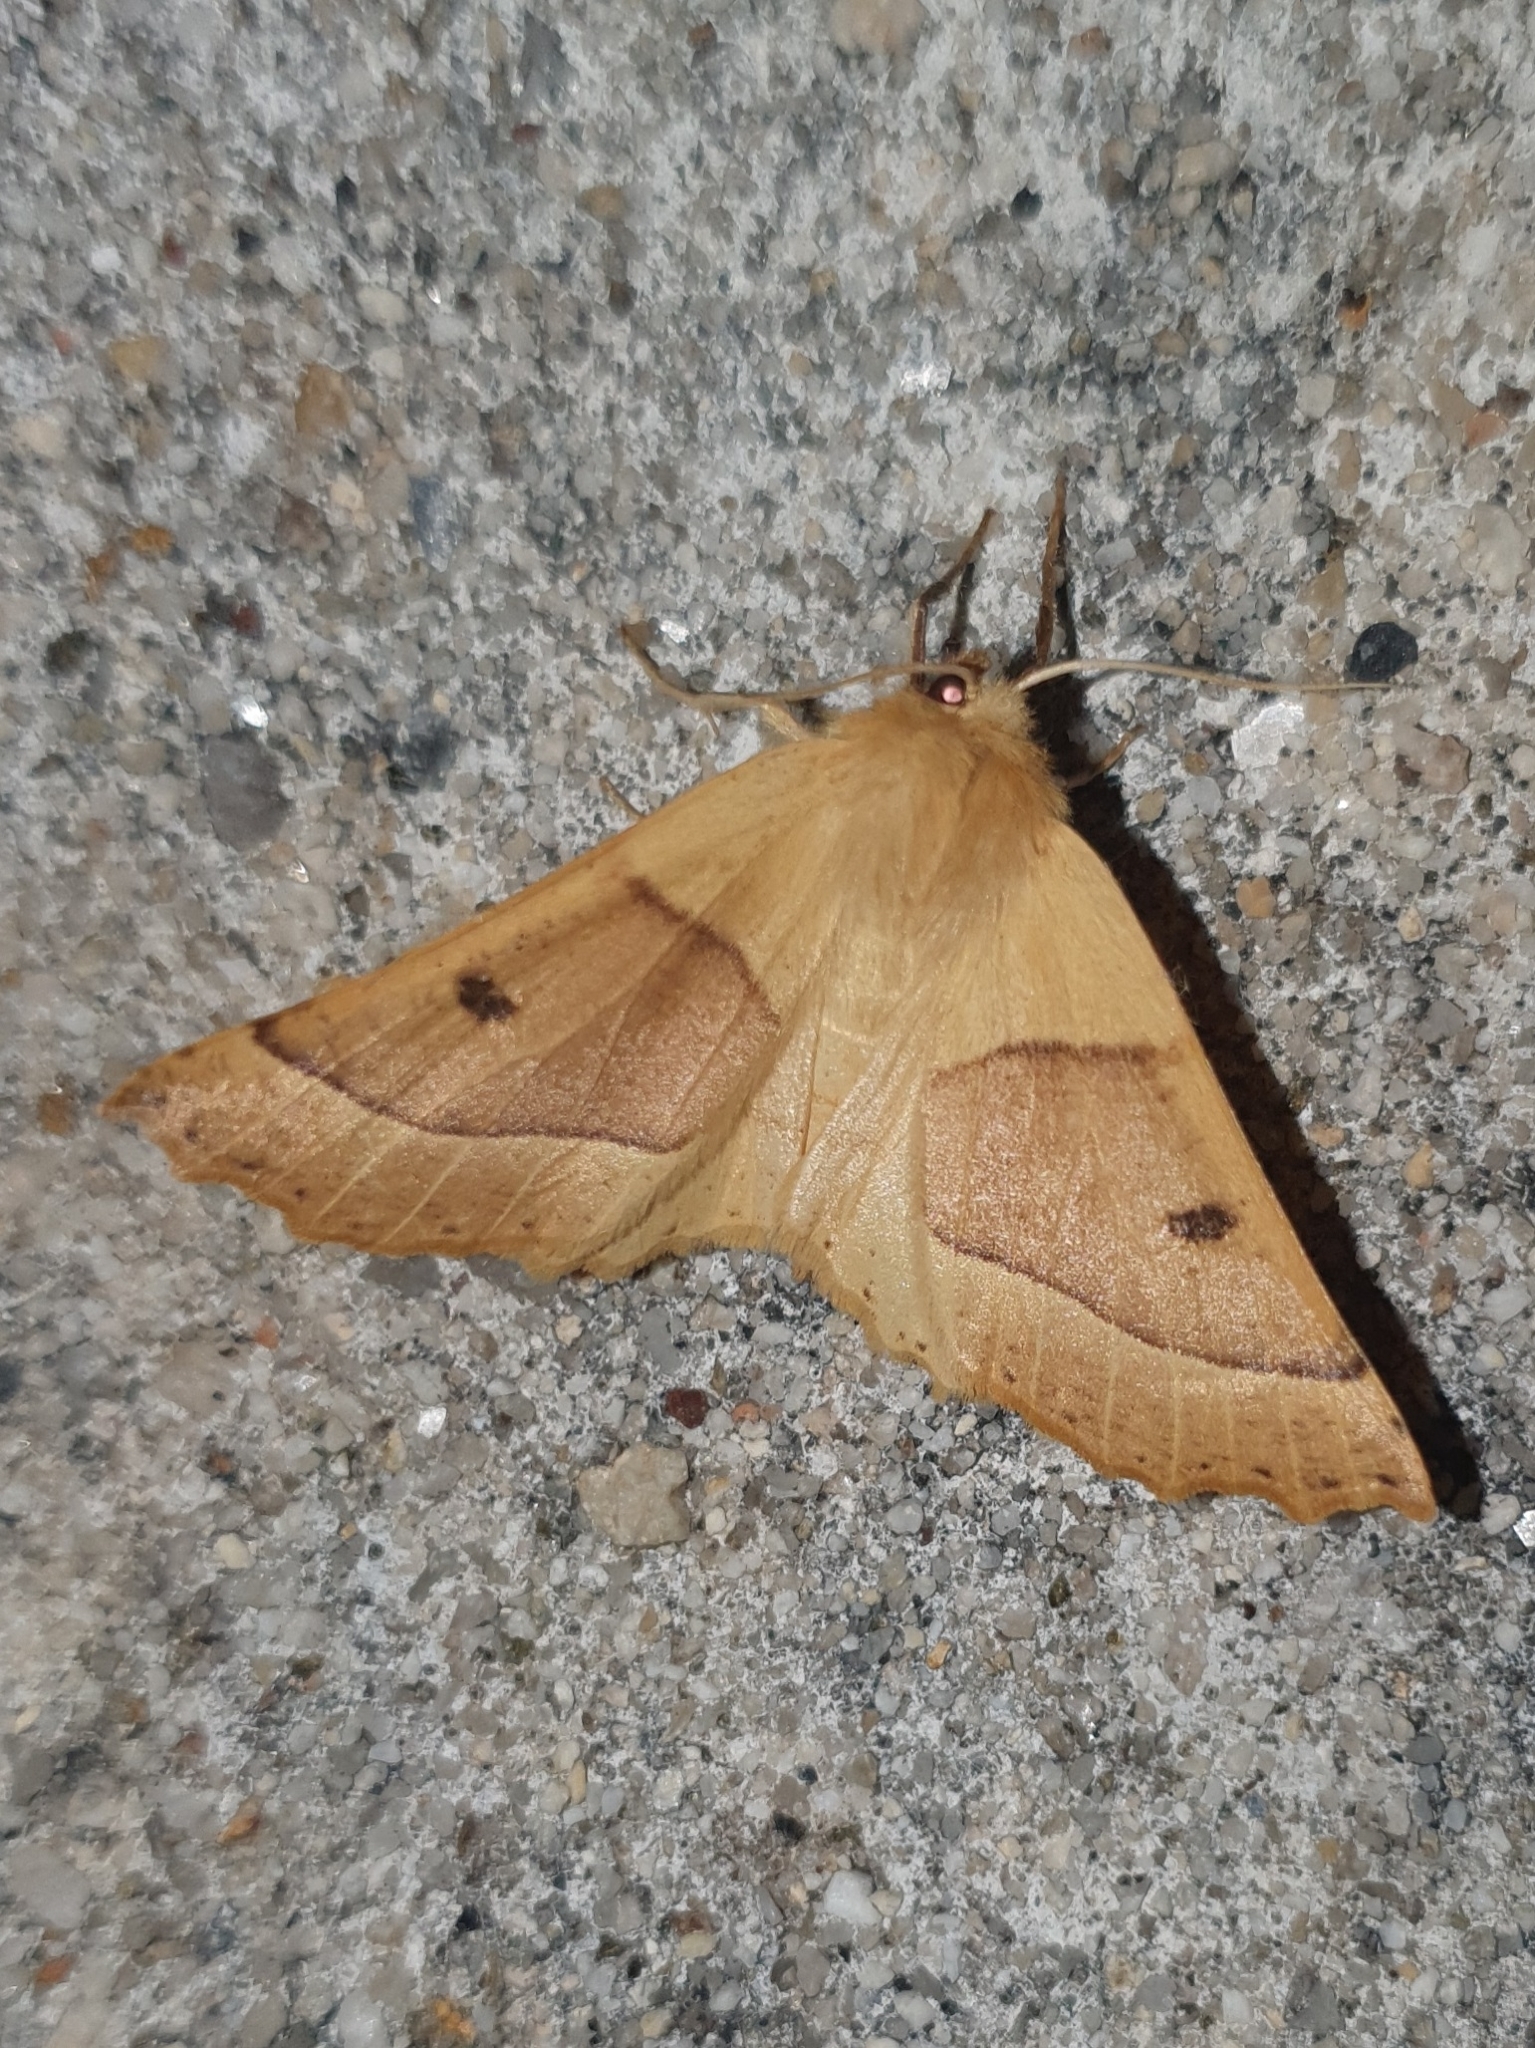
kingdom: Animalia
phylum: Arthropoda
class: Insecta
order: Lepidoptera
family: Geometridae
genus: Crocallis
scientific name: Crocallis elinguaria
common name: Scalloped oak
